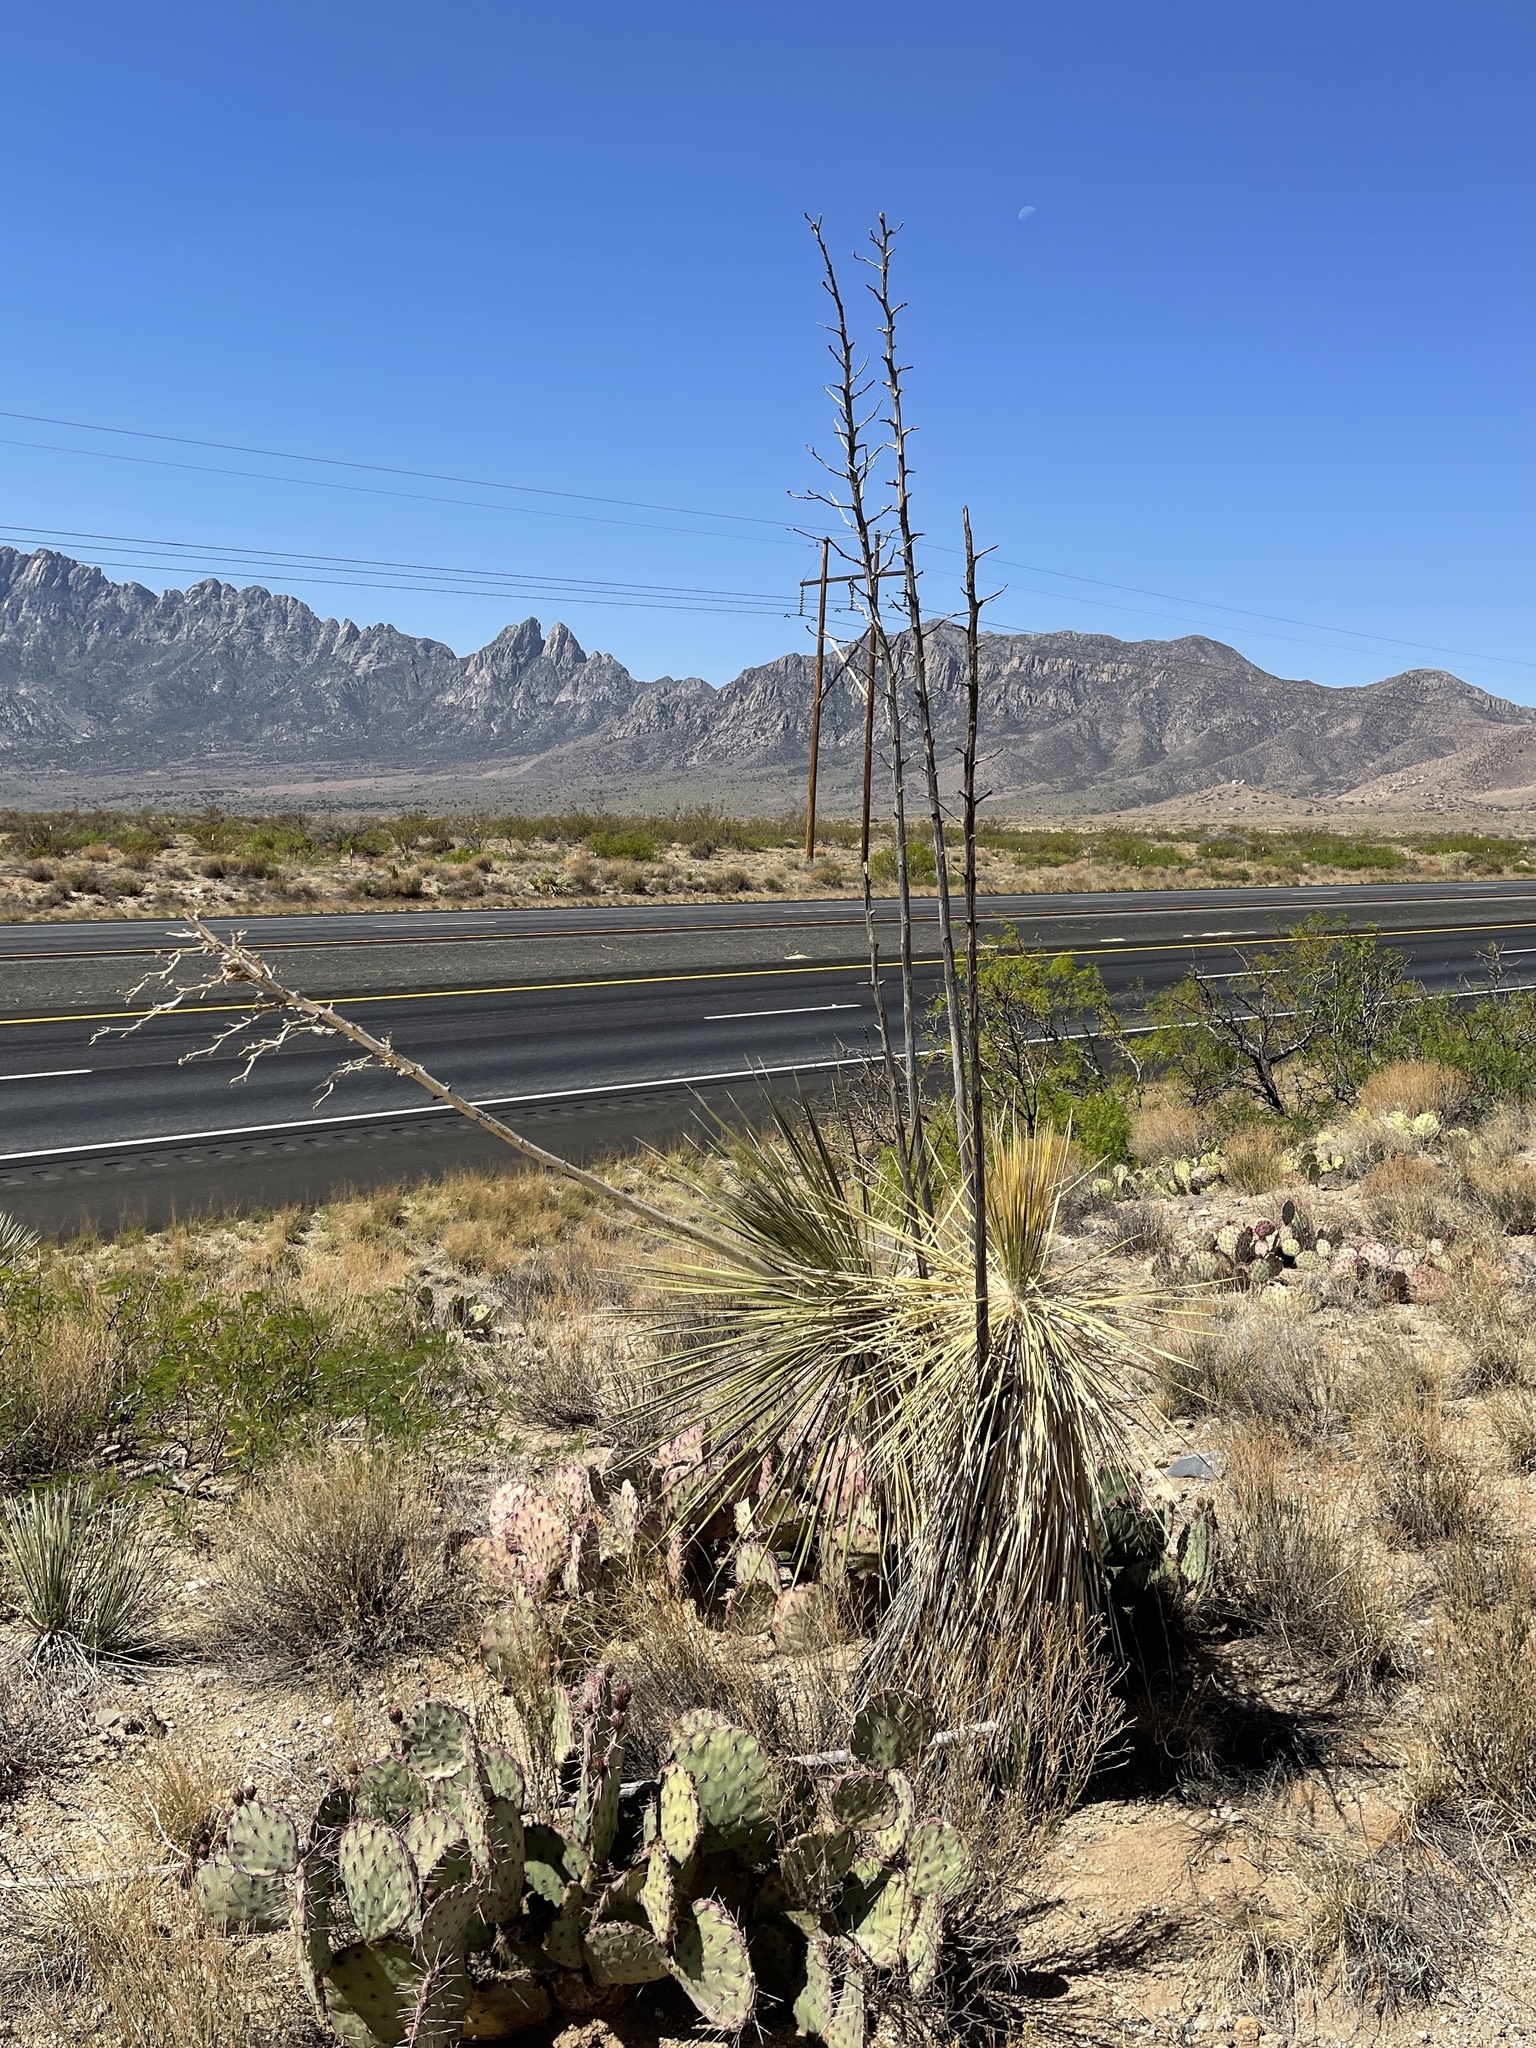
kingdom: Plantae
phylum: Tracheophyta
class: Liliopsida
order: Asparagales
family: Asparagaceae
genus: Yucca
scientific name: Yucca elata
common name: Palmella
